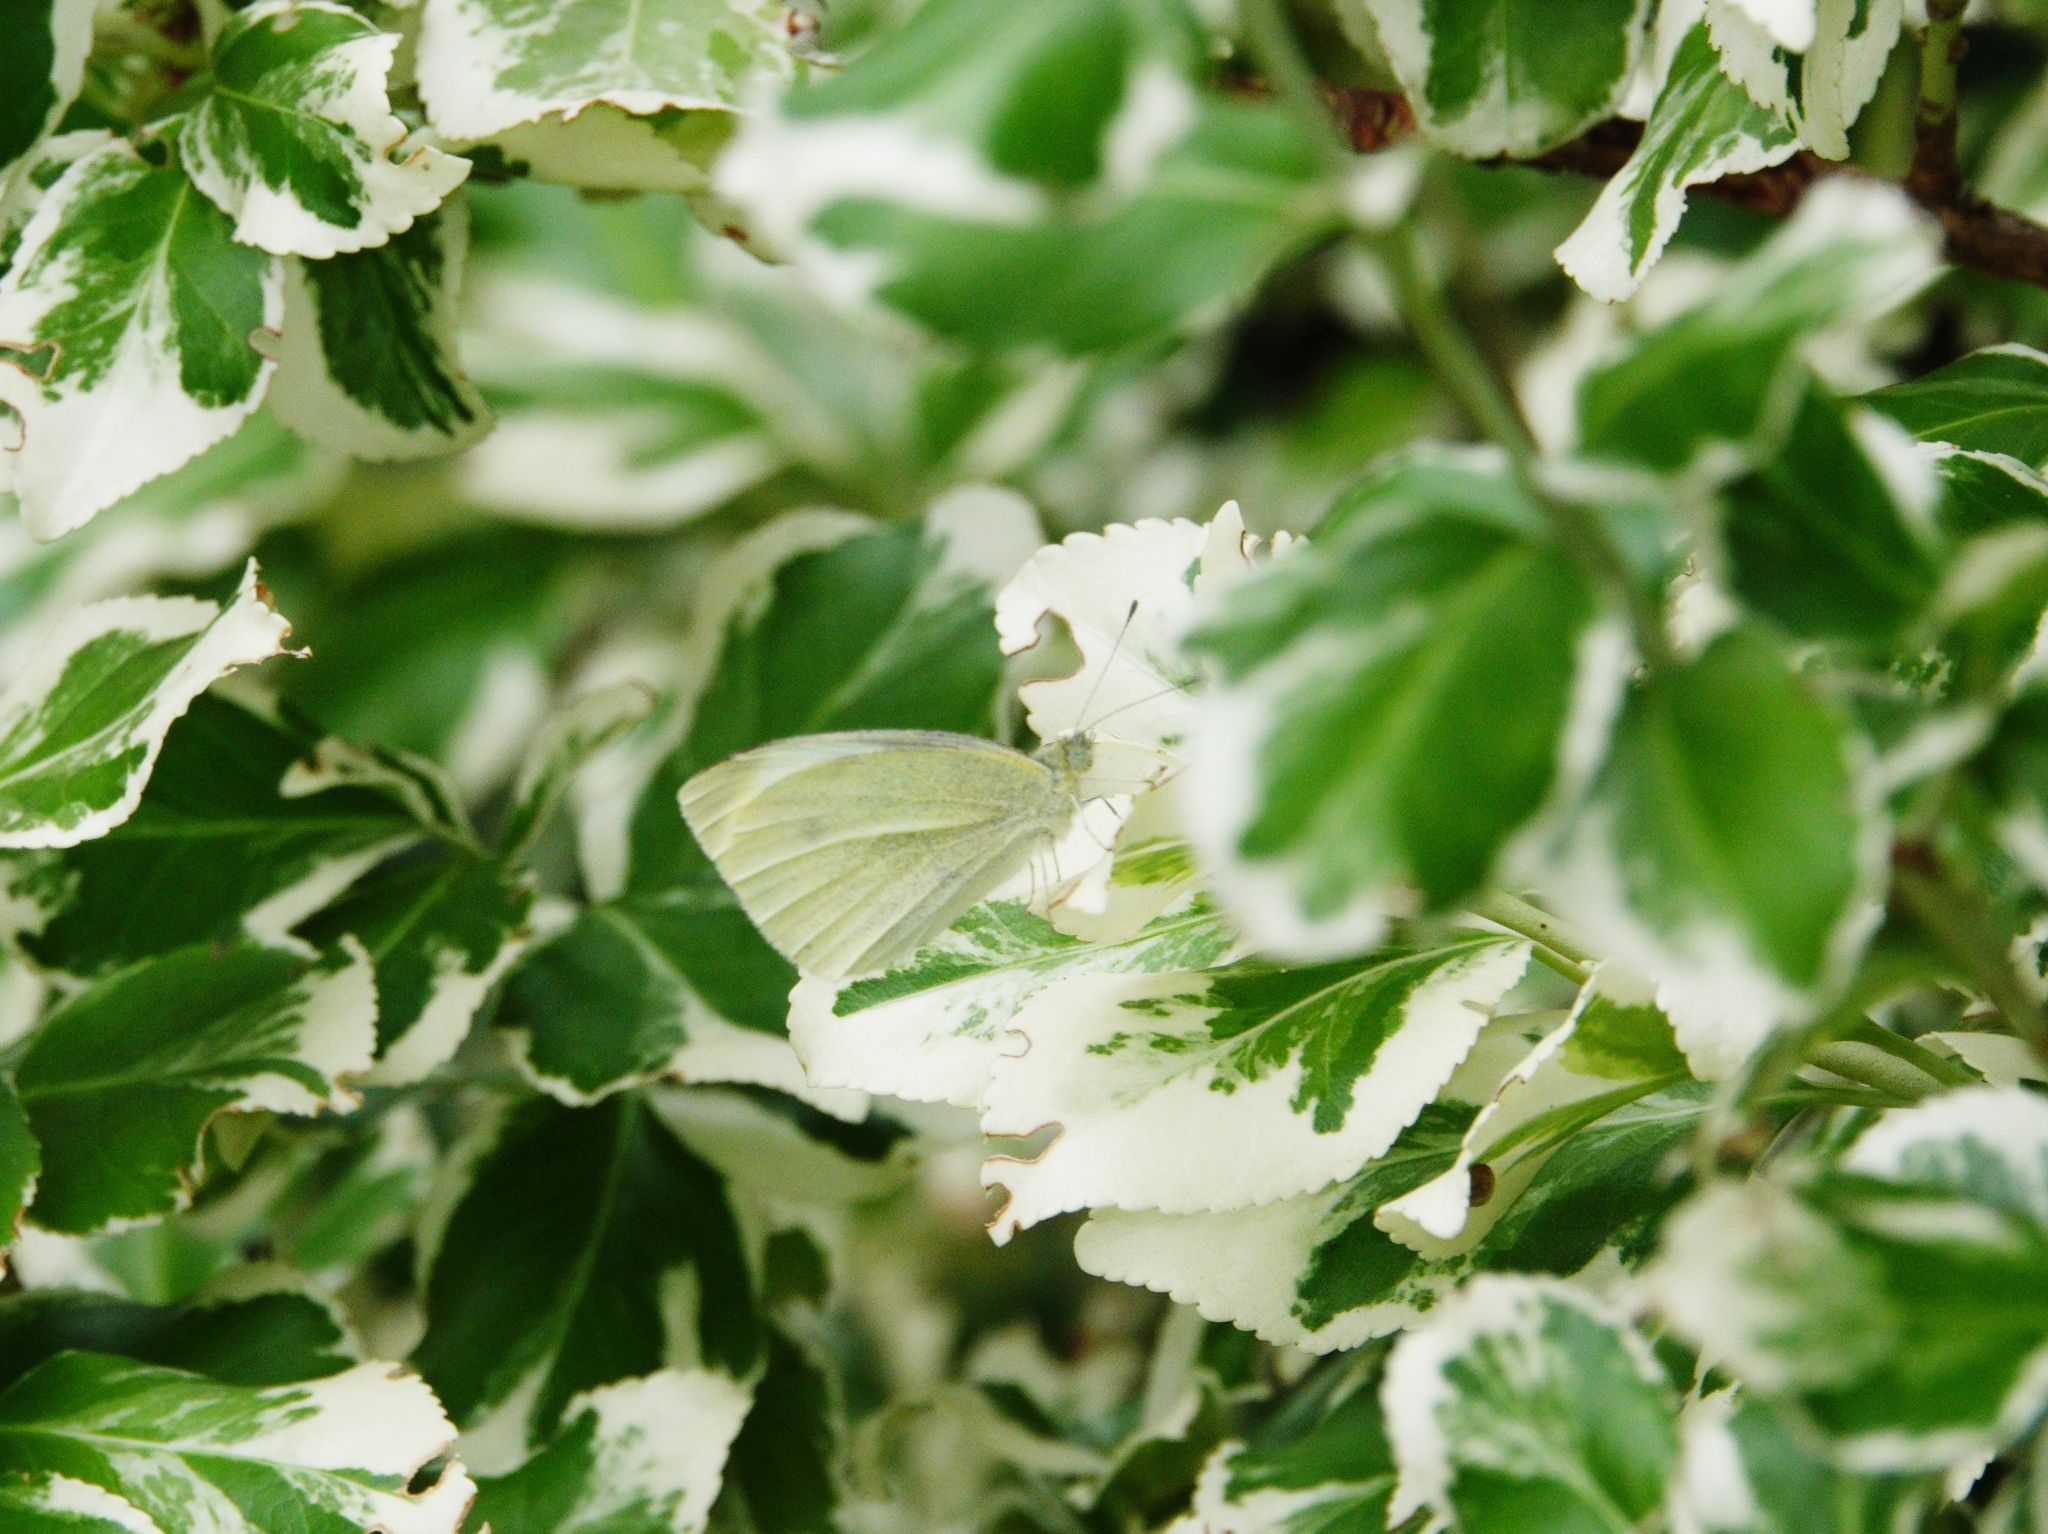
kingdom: Animalia
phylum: Arthropoda
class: Insecta
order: Lepidoptera
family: Pieridae
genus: Pieris
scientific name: Pieris rapae
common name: Small white
